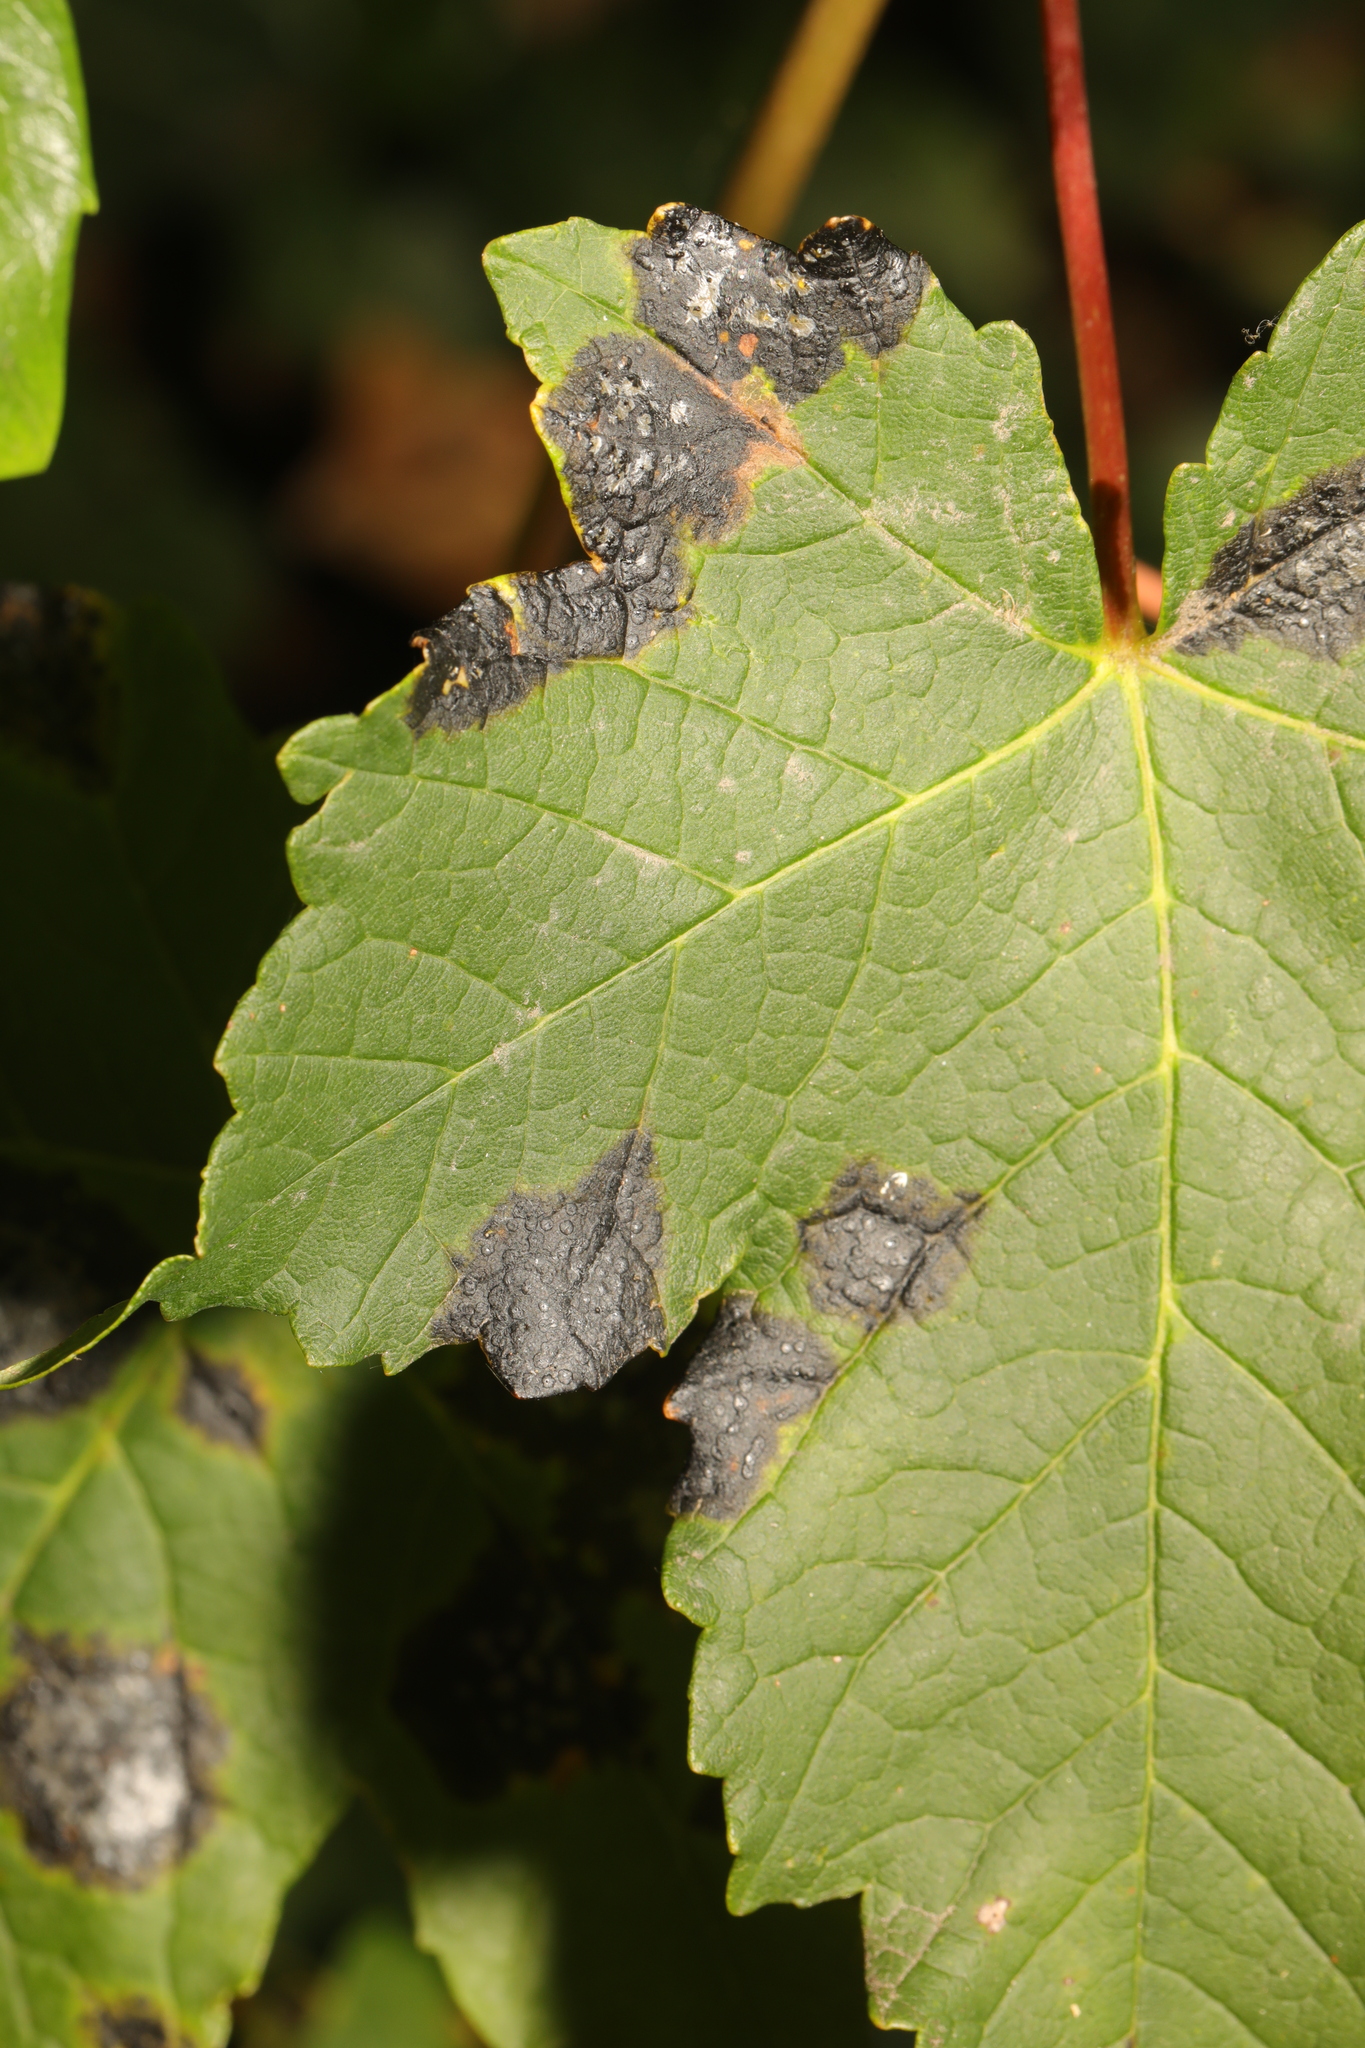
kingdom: Fungi
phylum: Ascomycota
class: Leotiomycetes
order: Rhytismatales
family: Rhytismataceae
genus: Rhytisma
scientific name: Rhytisma acerinum
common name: European tar spot
